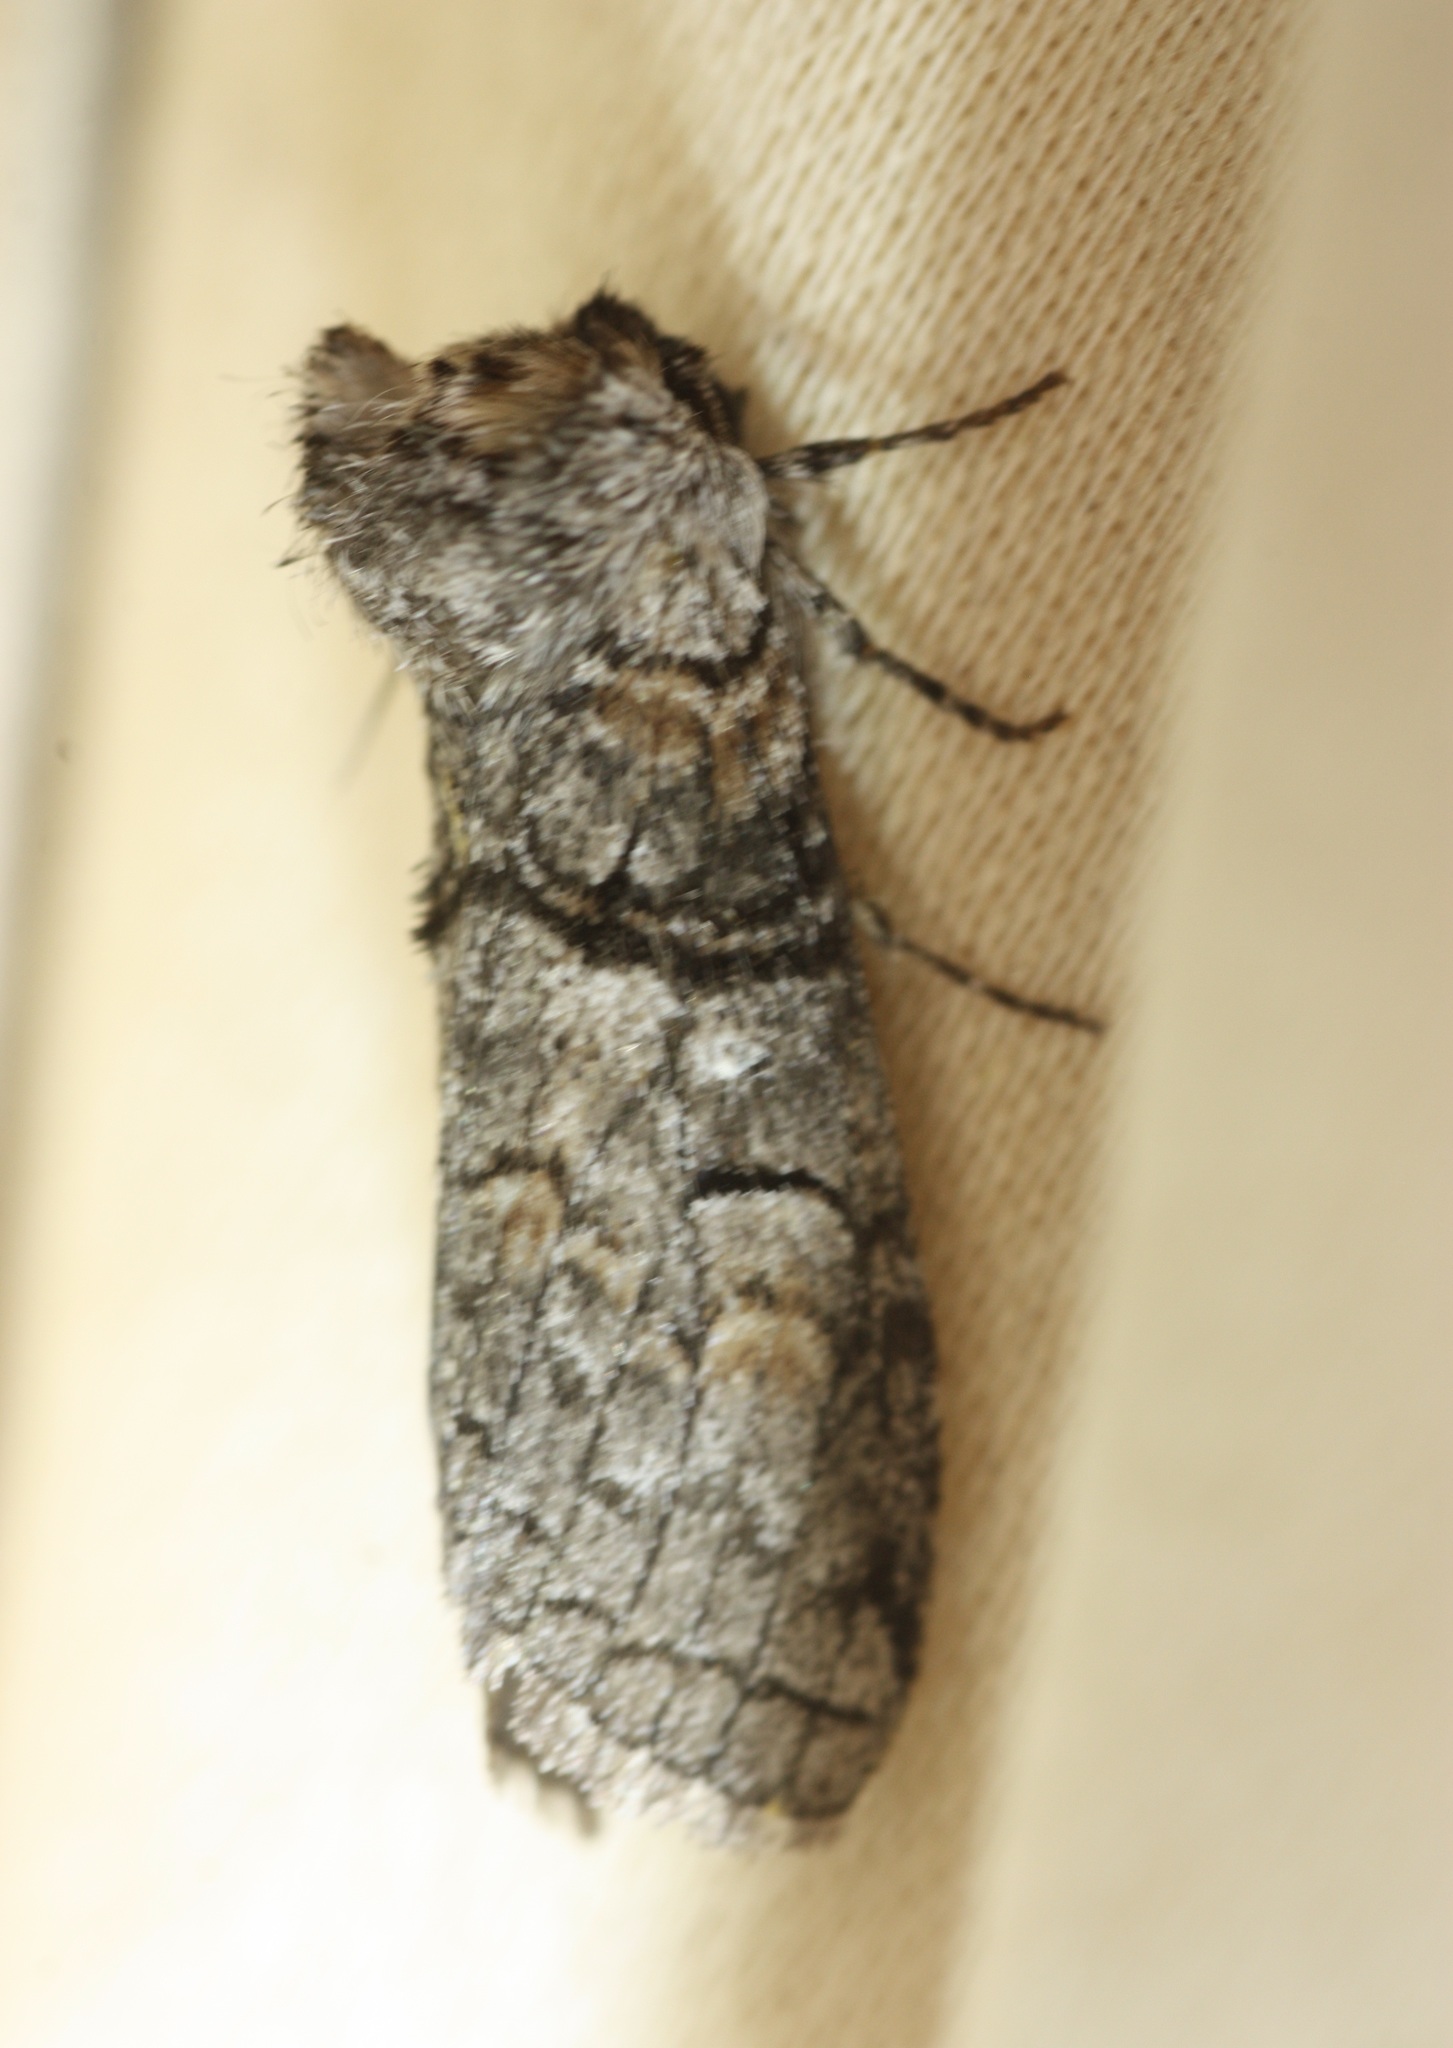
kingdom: Animalia
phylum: Arthropoda
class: Insecta
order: Lepidoptera
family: Notodontidae
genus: Afilia
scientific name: Afilia oslari
